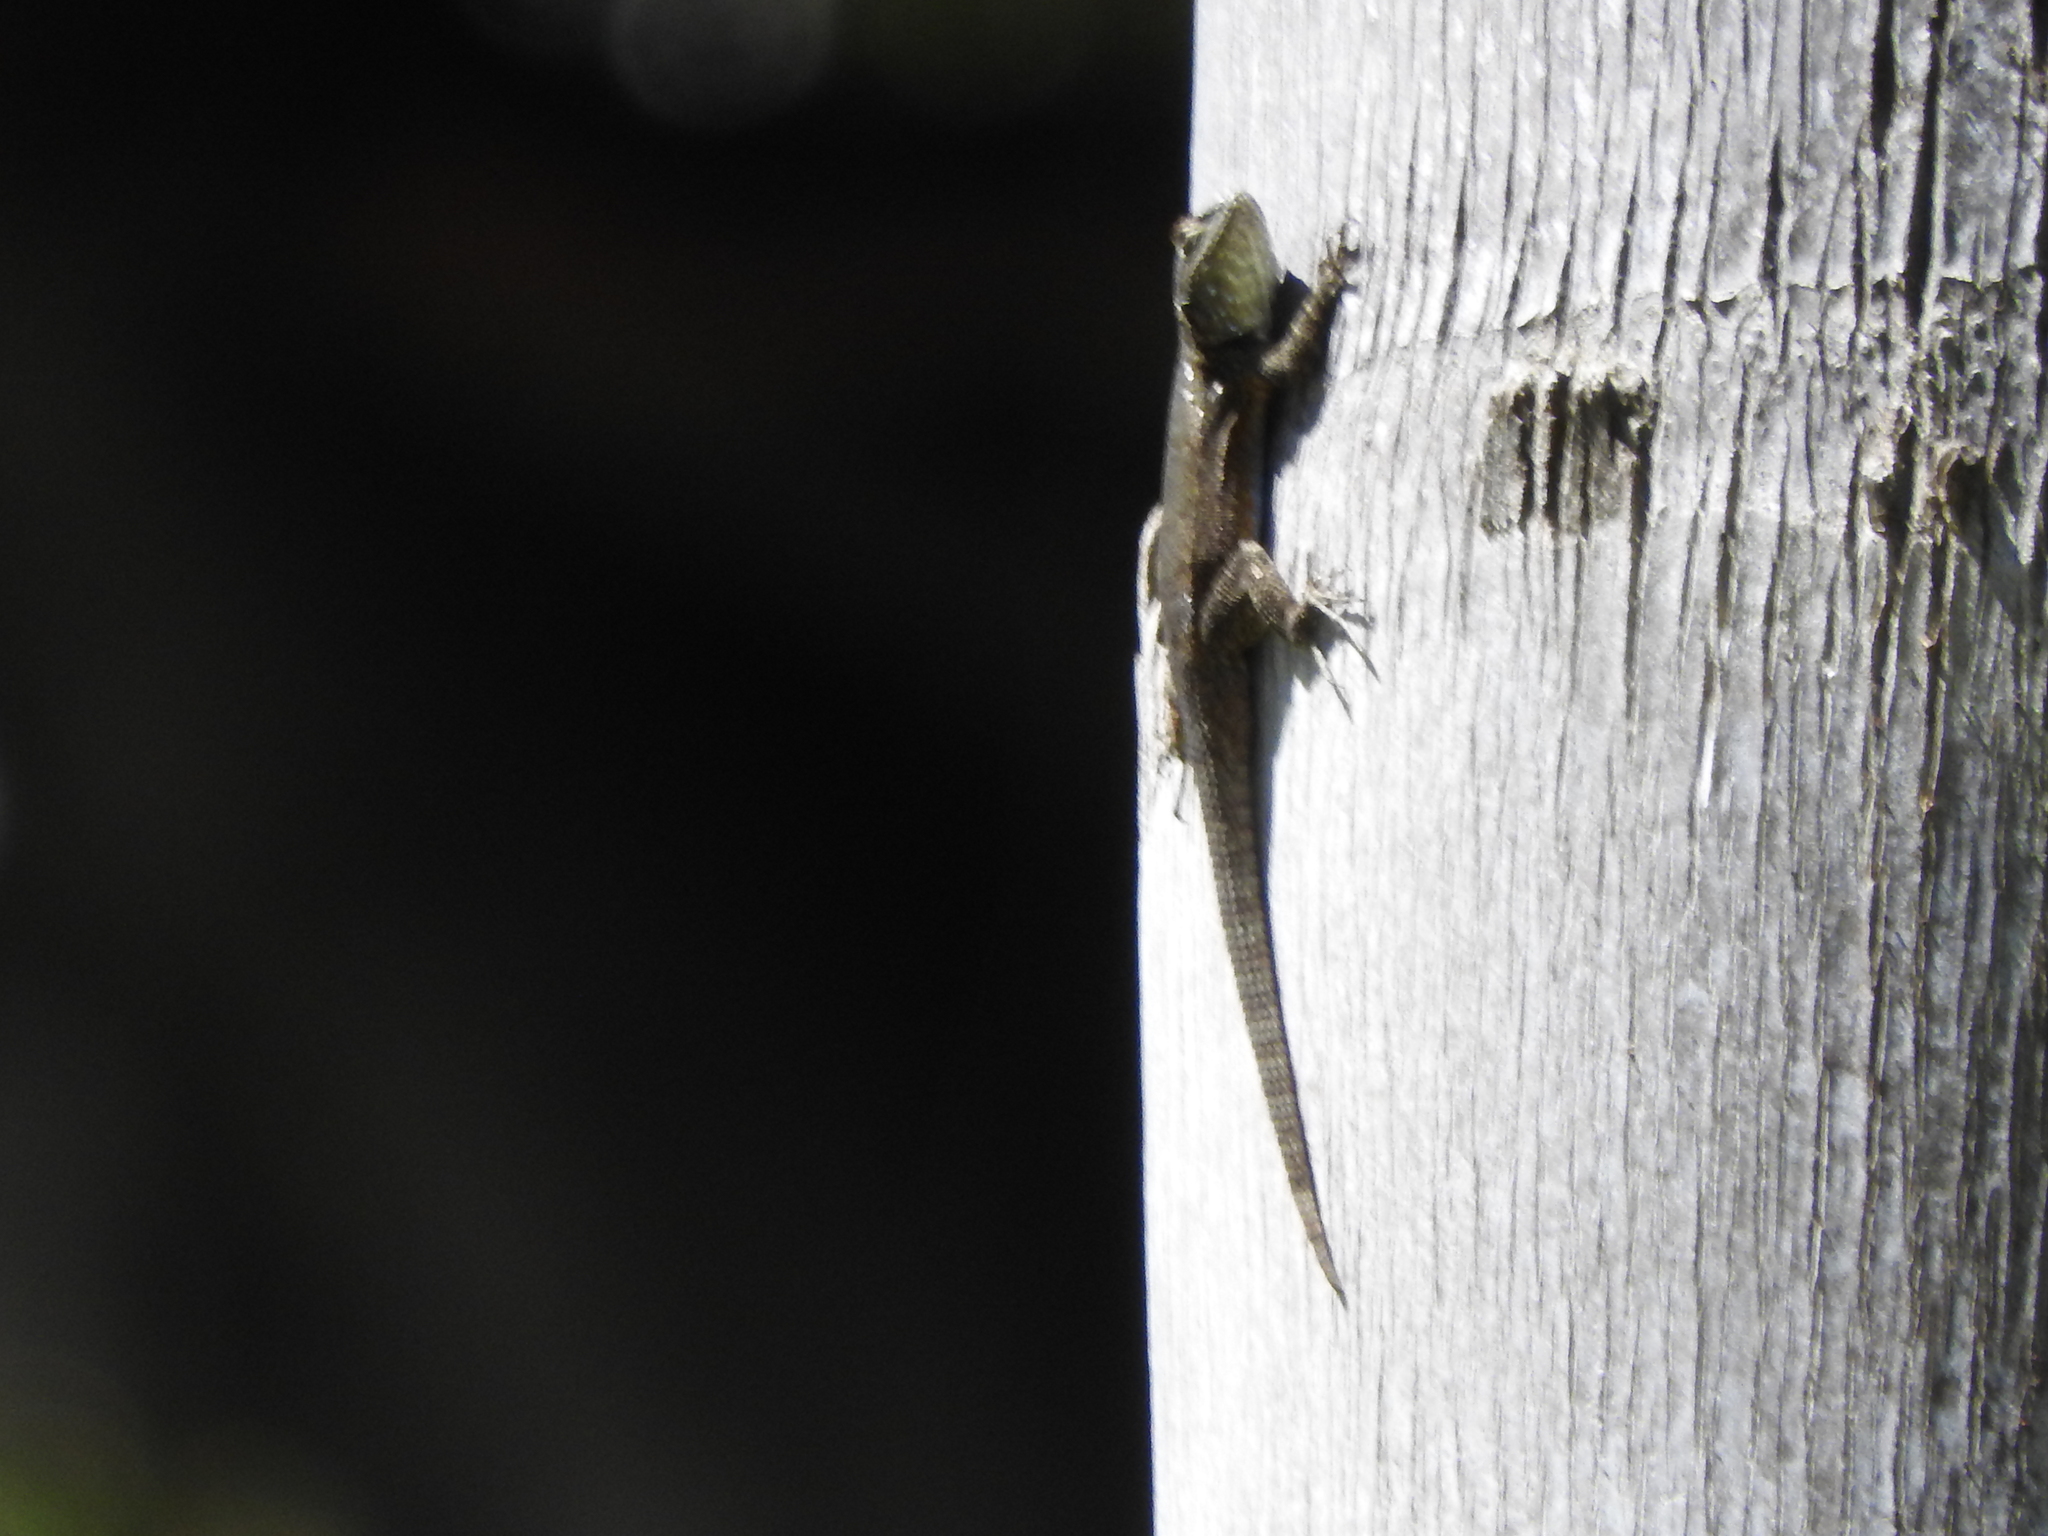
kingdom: Animalia
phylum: Chordata
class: Squamata
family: Phrynosomatidae
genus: Sceloporus
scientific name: Sceloporus grammicus
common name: Mesquite lizard
